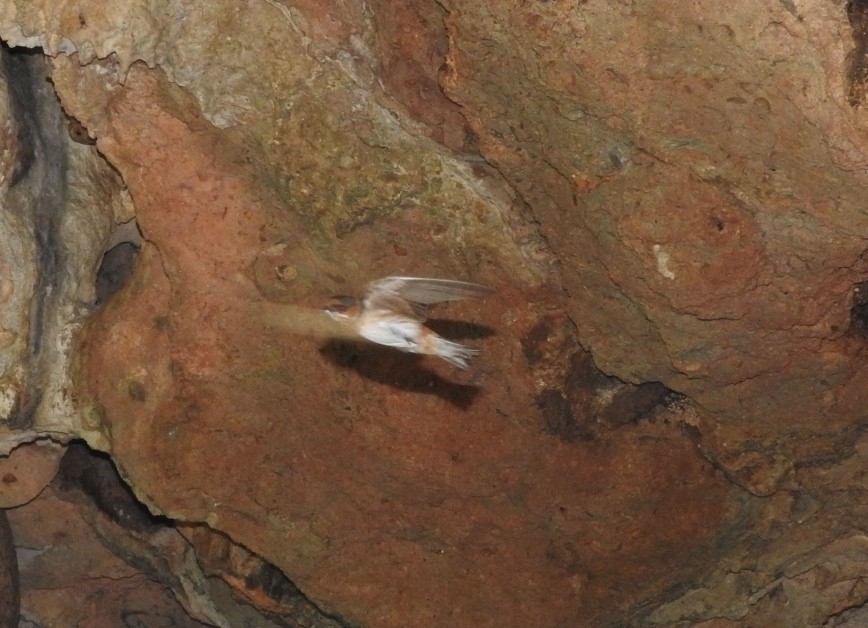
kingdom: Animalia
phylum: Chordata
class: Aves
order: Passeriformes
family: Hirundinidae
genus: Petrochelidon
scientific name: Petrochelidon fulva
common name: Cave swallow
